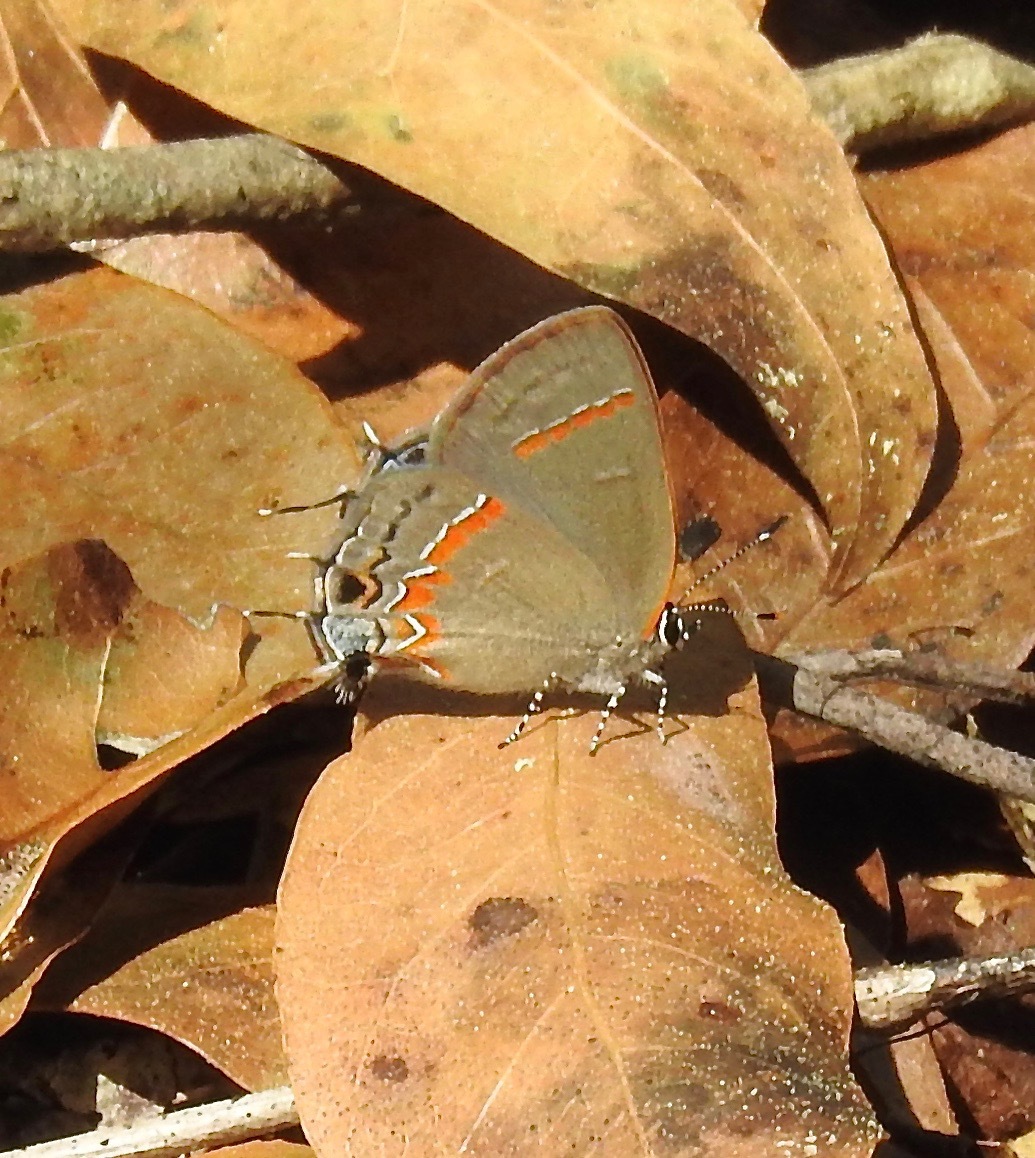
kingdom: Animalia
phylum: Arthropoda
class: Insecta
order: Lepidoptera
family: Lycaenidae
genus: Calycopis
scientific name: Calycopis cecrops
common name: Red-banded hairstreak
